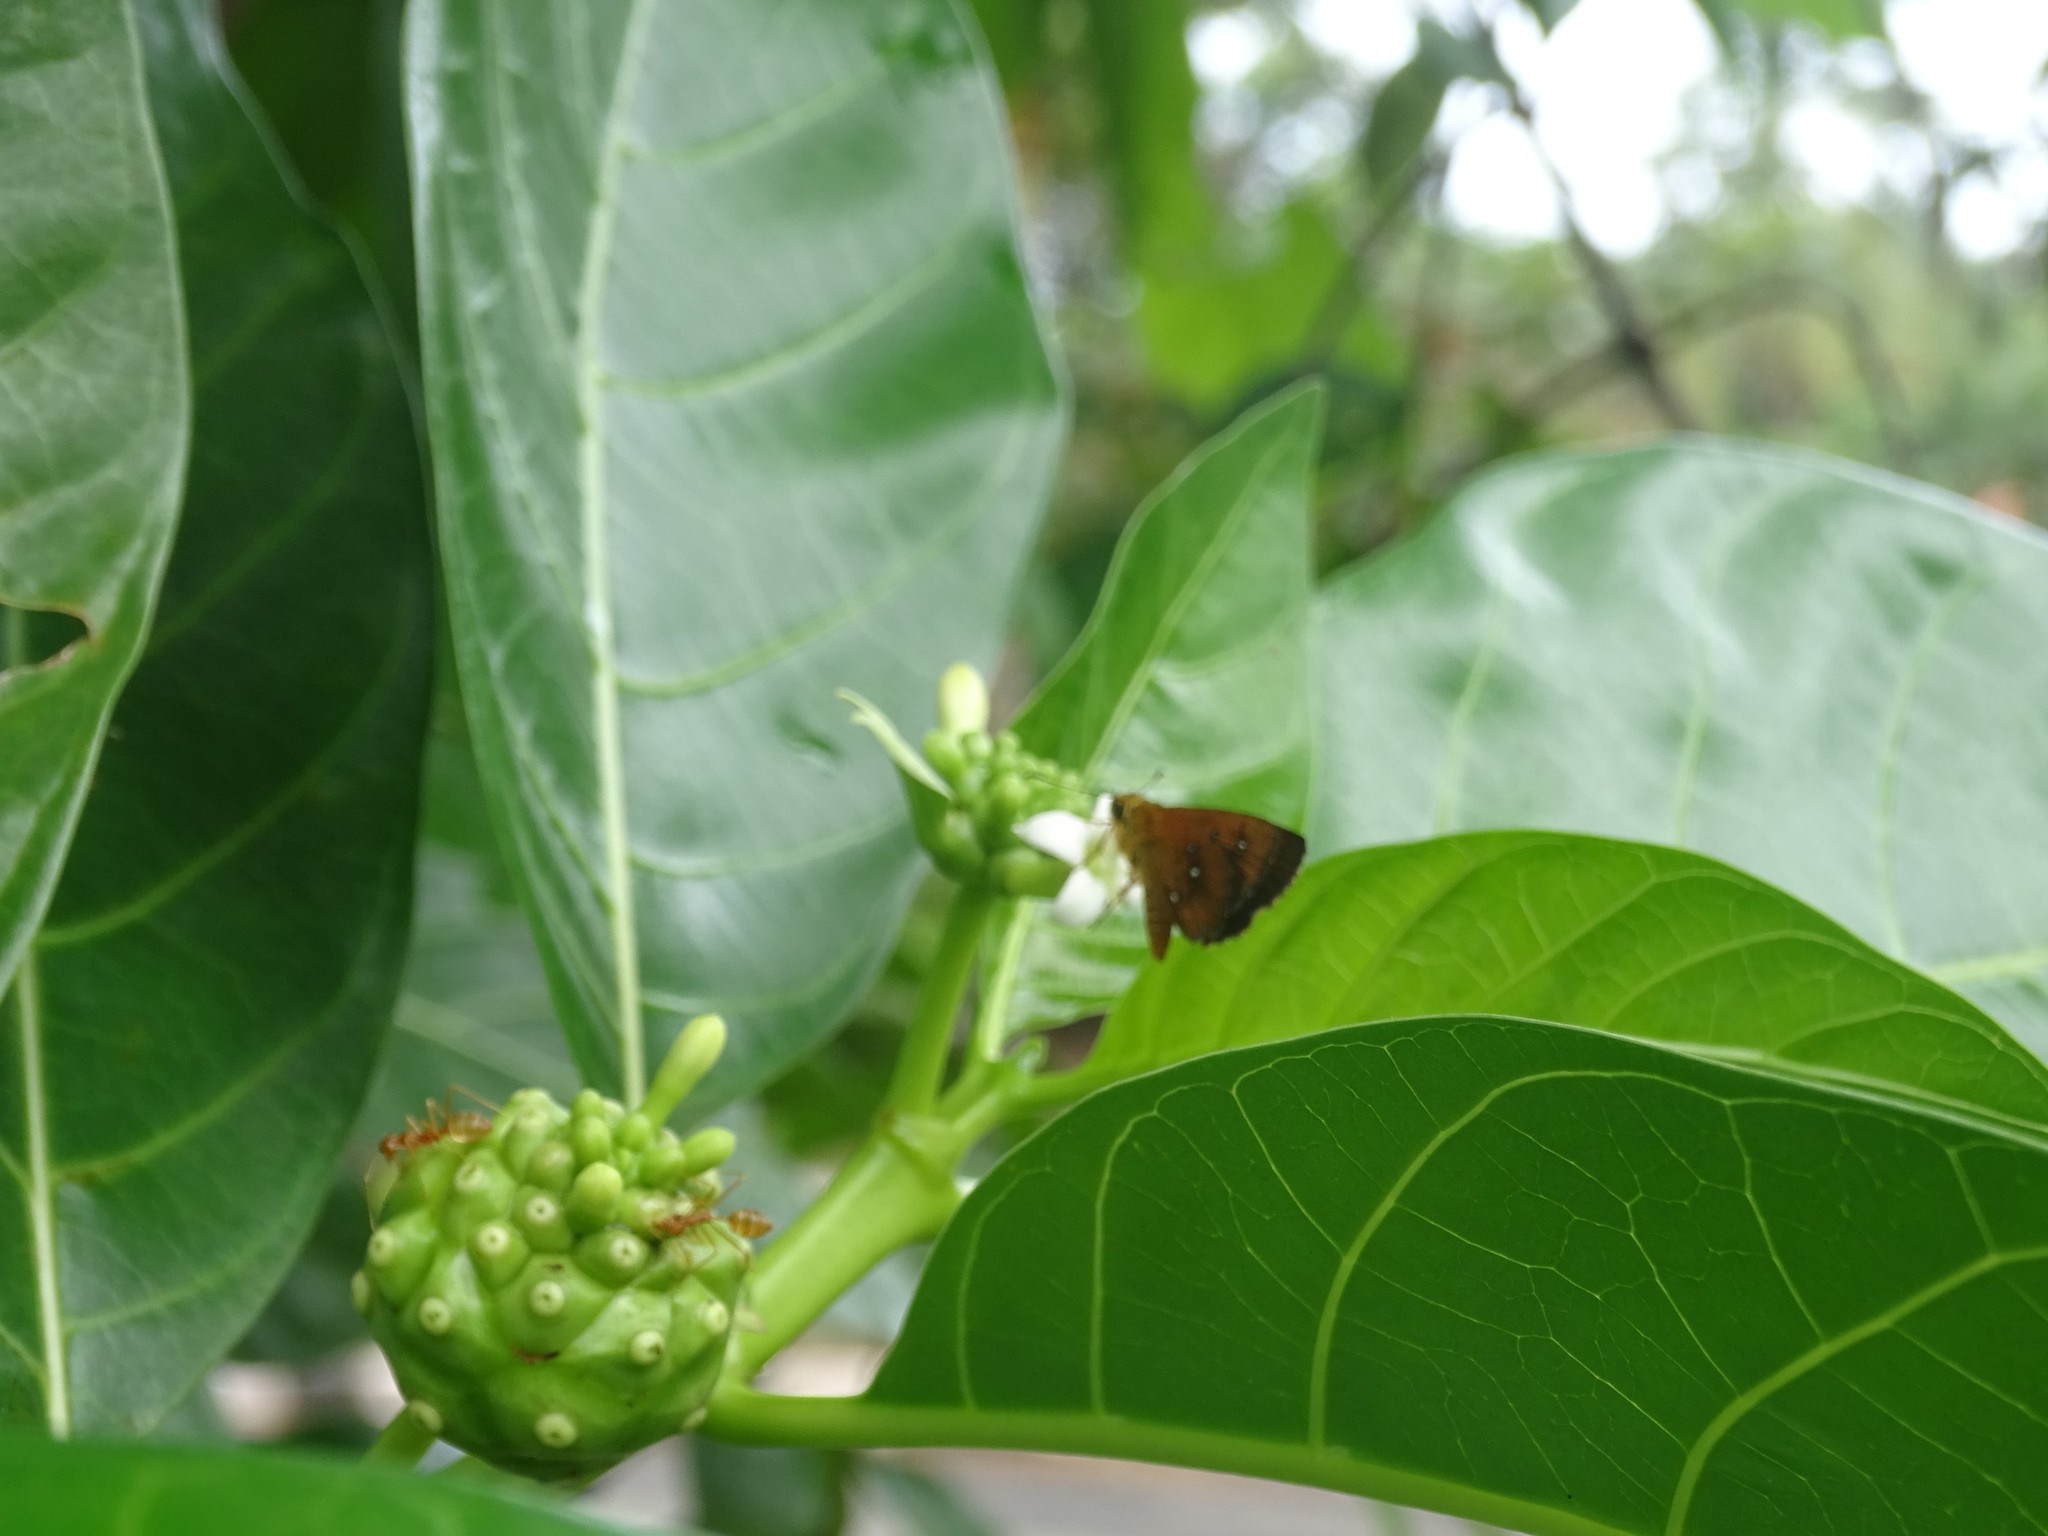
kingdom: Animalia
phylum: Arthropoda
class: Insecta
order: Lepidoptera
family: Hesperiidae
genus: Iambrix
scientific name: Iambrix salsala
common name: Chestnut bob
